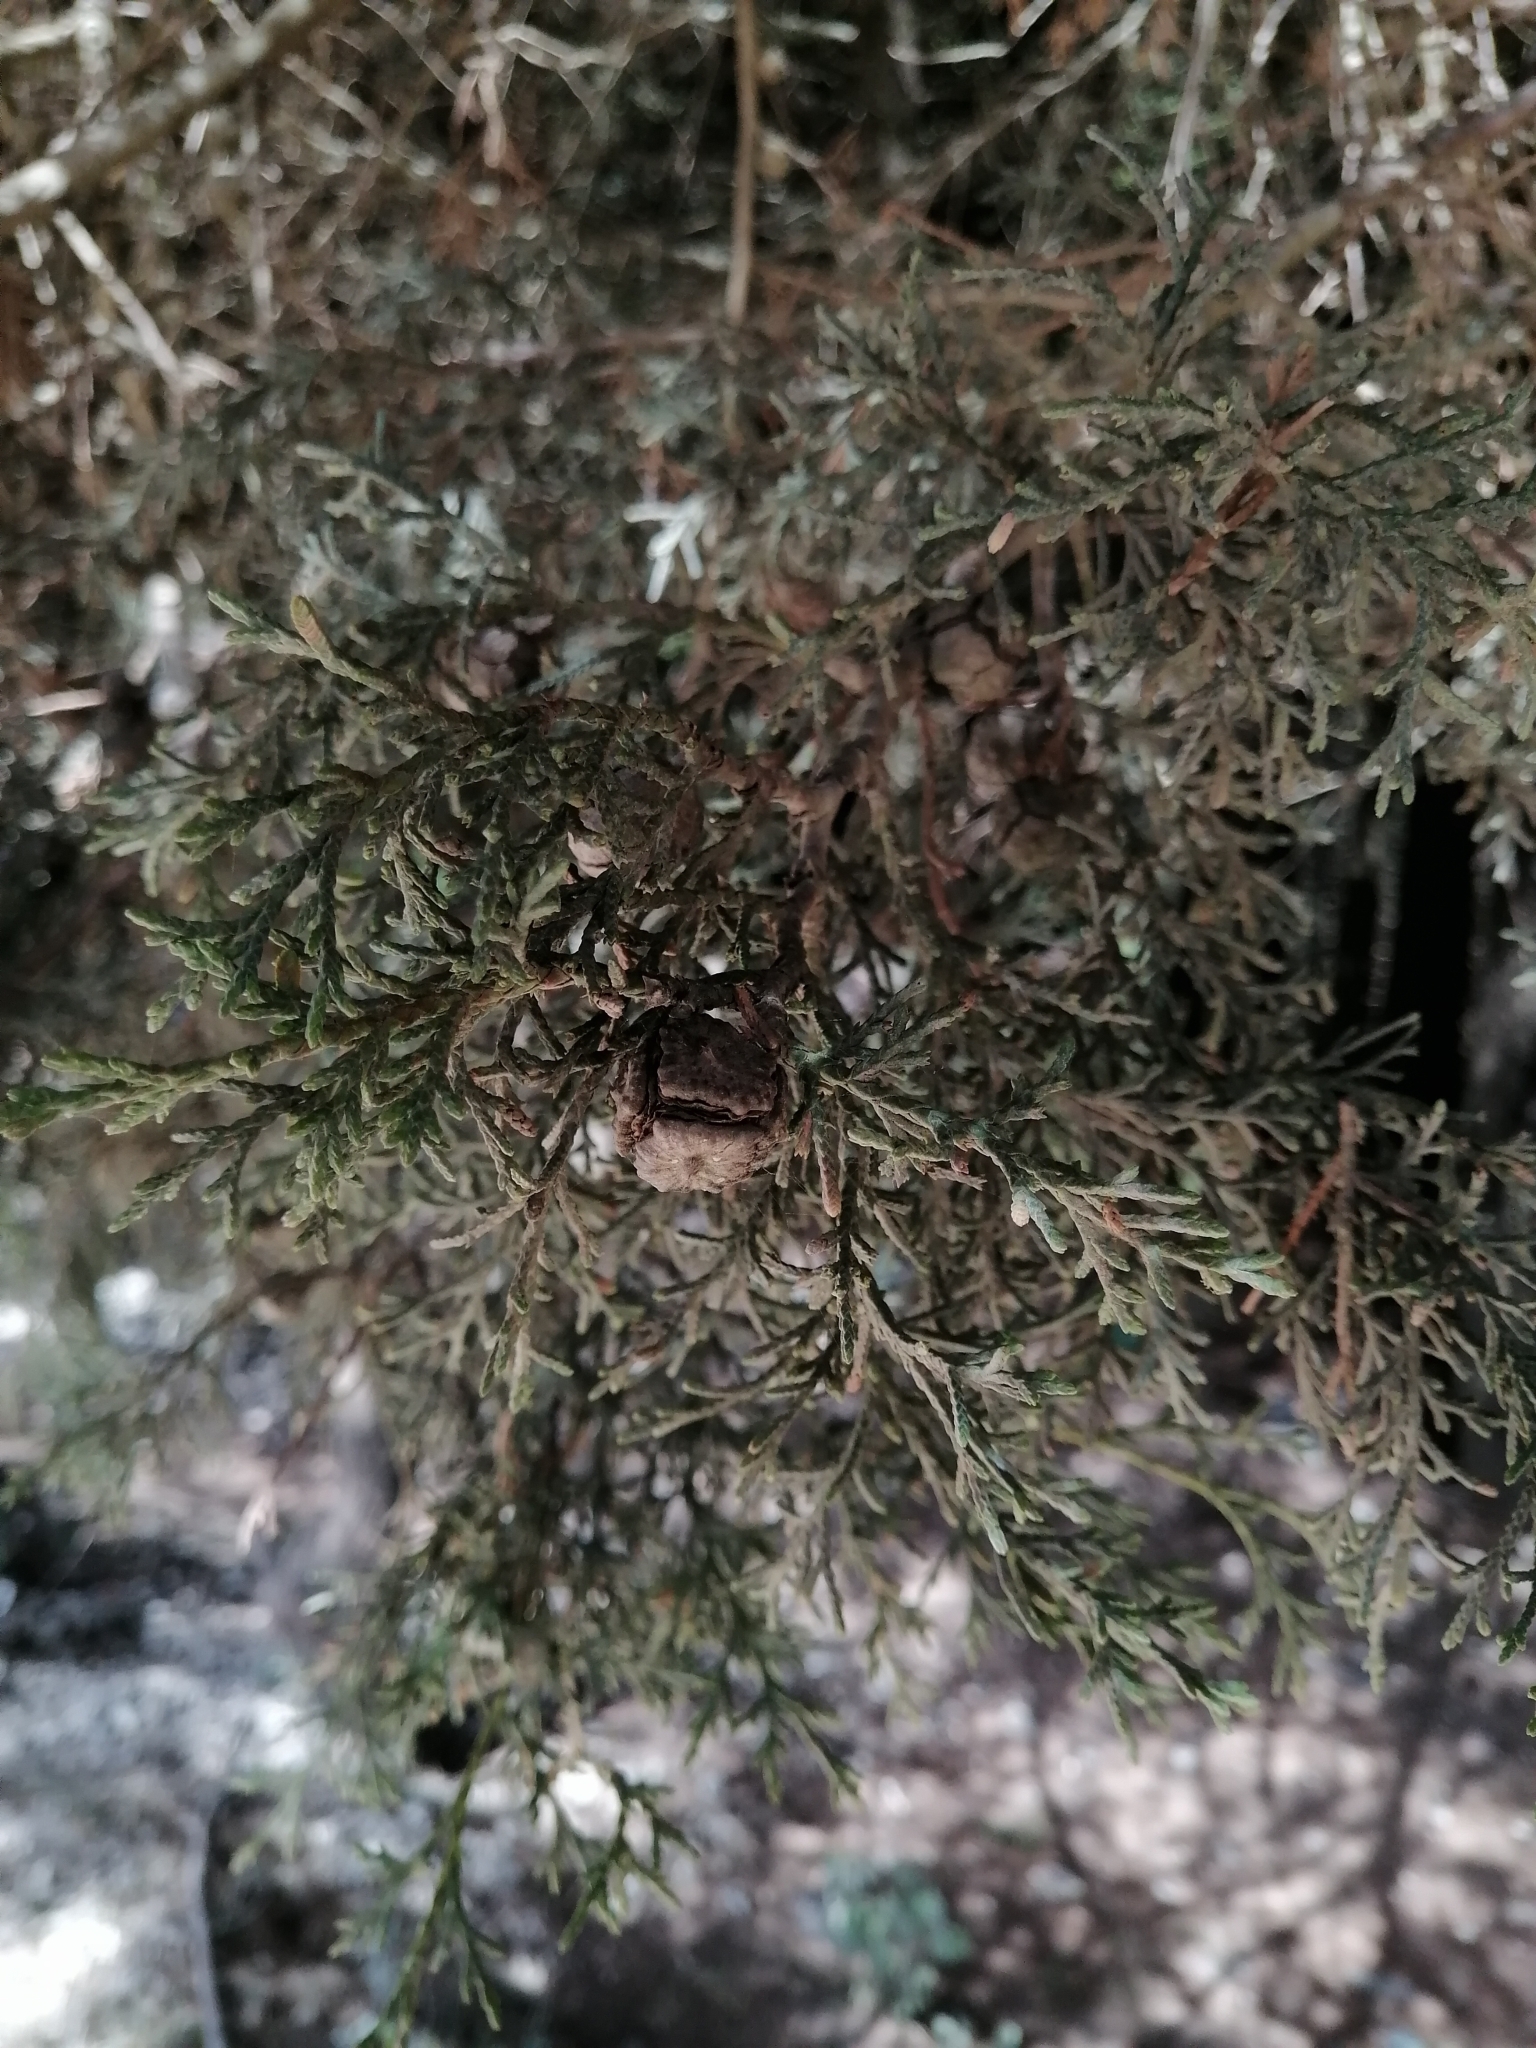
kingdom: Plantae
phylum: Tracheophyta
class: Pinopsida
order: Pinales
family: Cupressaceae
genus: Cupressus
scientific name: Cupressus lusitanica
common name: Mexican cypress
